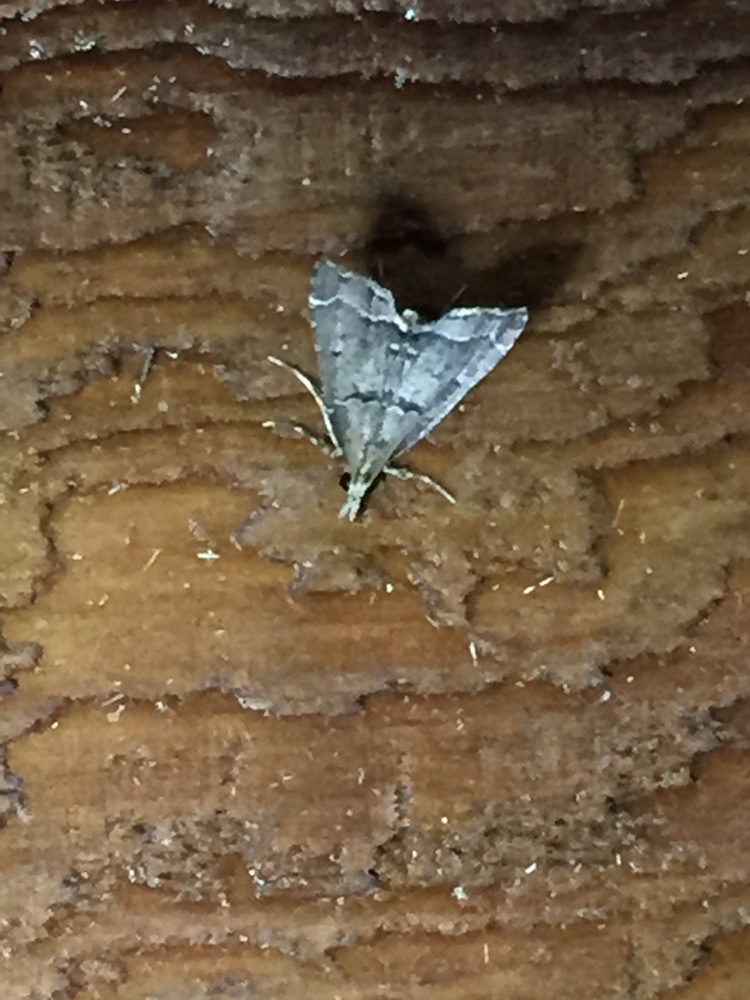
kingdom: Animalia
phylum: Arthropoda
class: Insecta
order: Lepidoptera
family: Crambidae
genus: Diplopseustis
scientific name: Diplopseustis perieresalis
